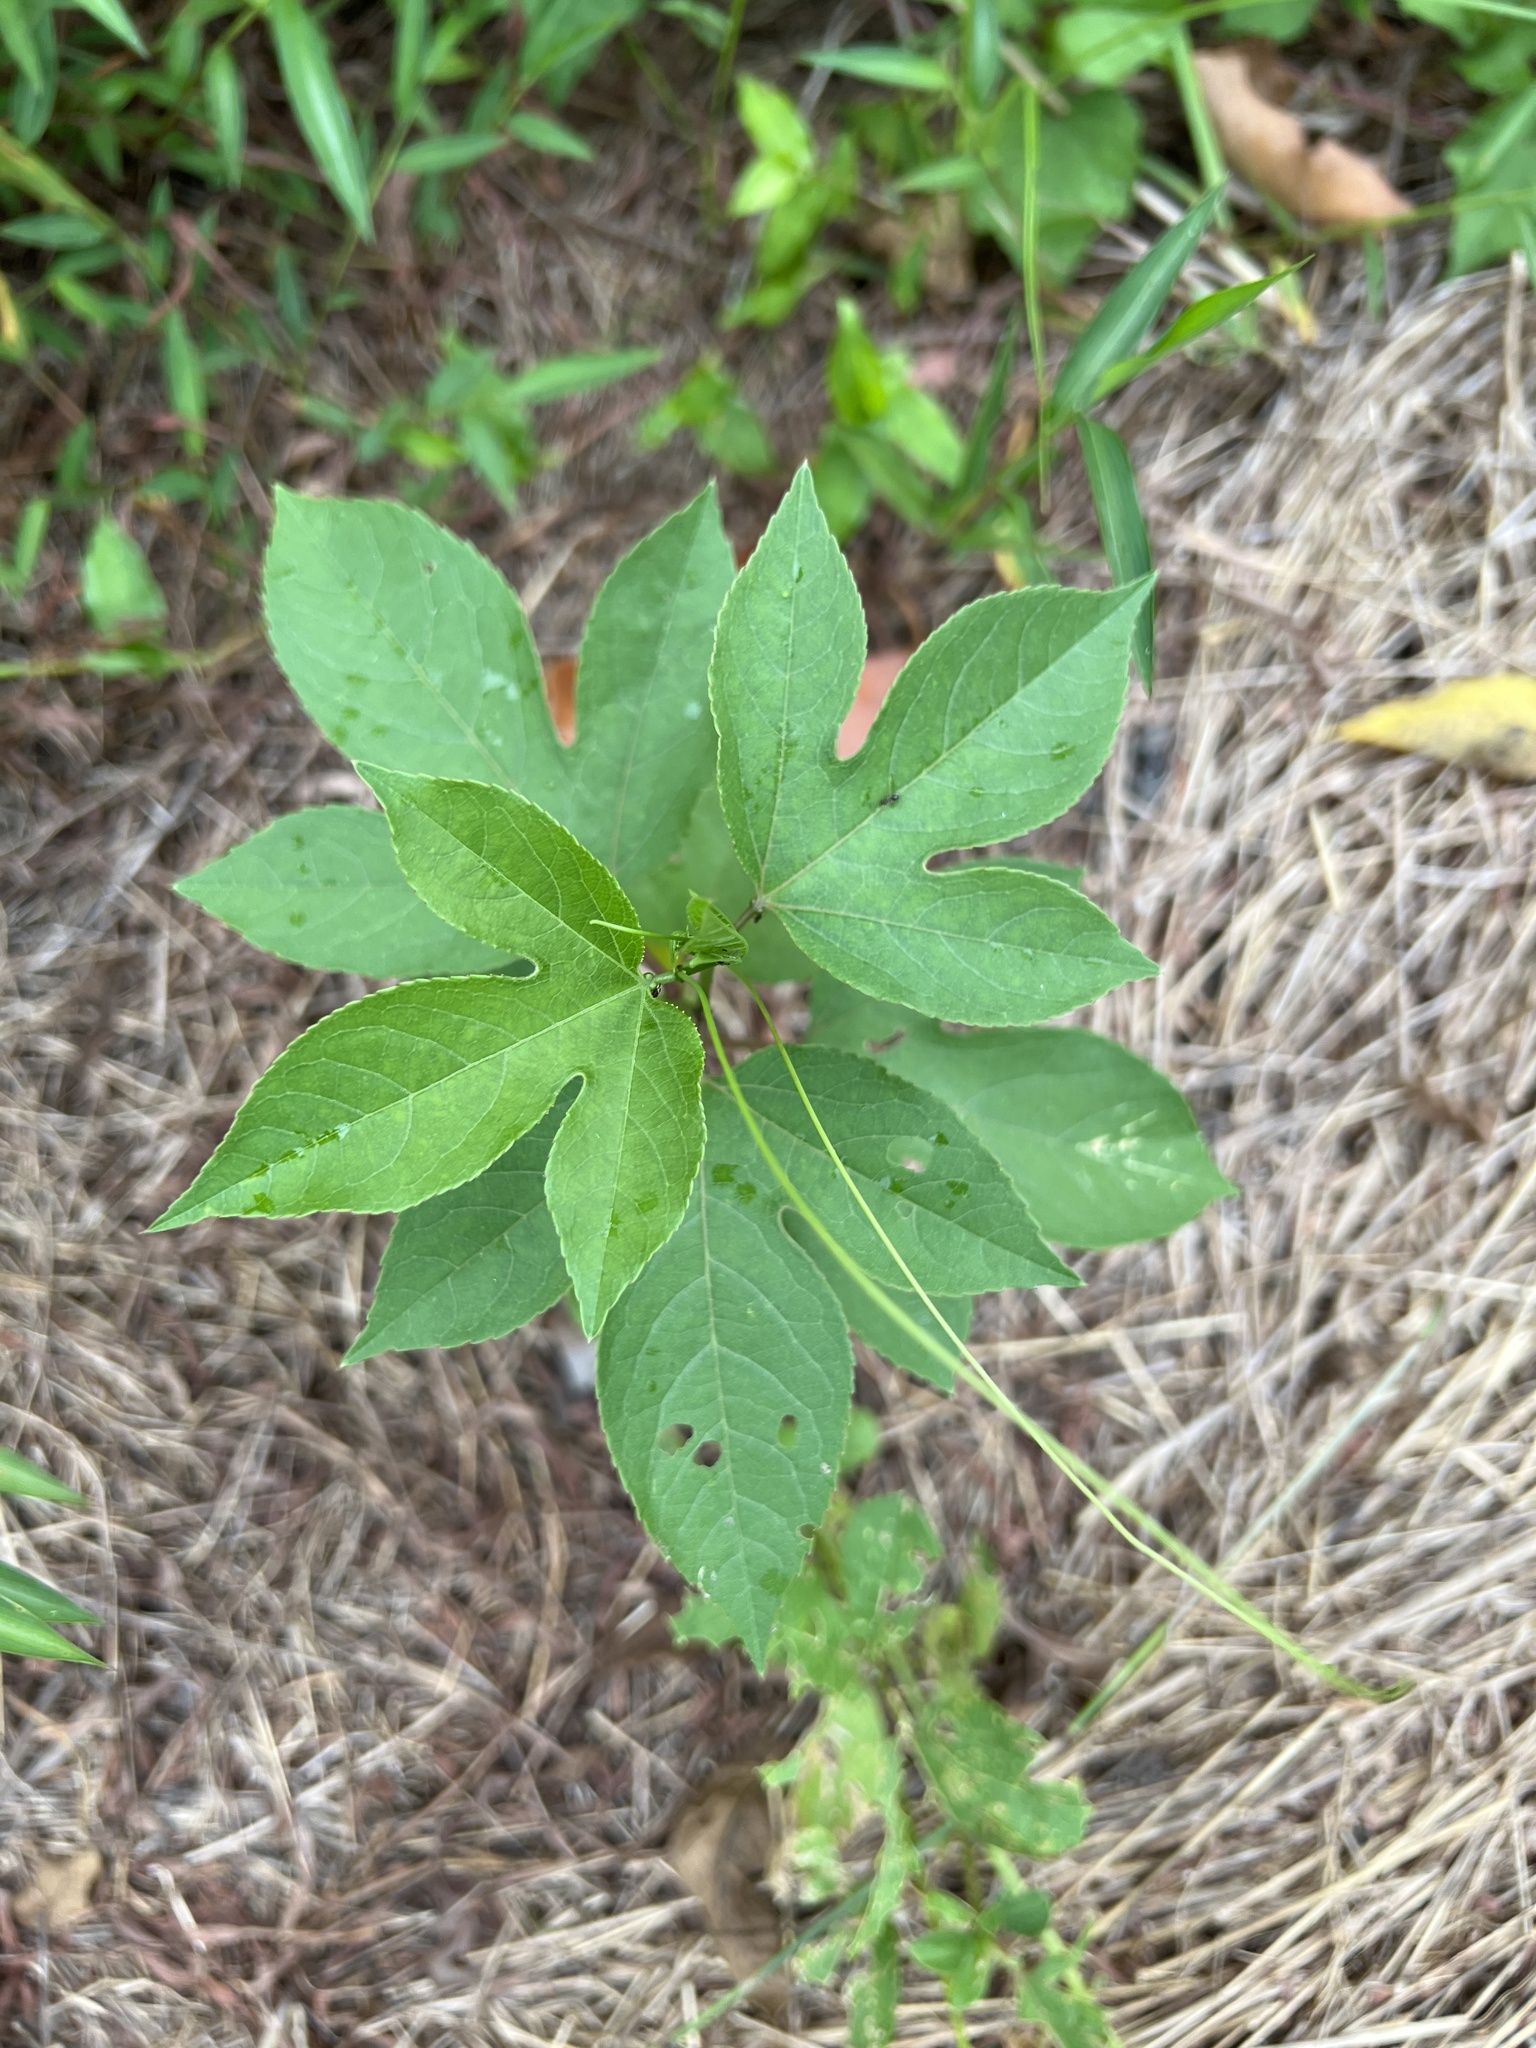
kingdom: Plantae
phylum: Tracheophyta
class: Magnoliopsida
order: Malpighiales
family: Passifloraceae
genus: Passiflora
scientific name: Passiflora incarnata
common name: Apricot-vine
